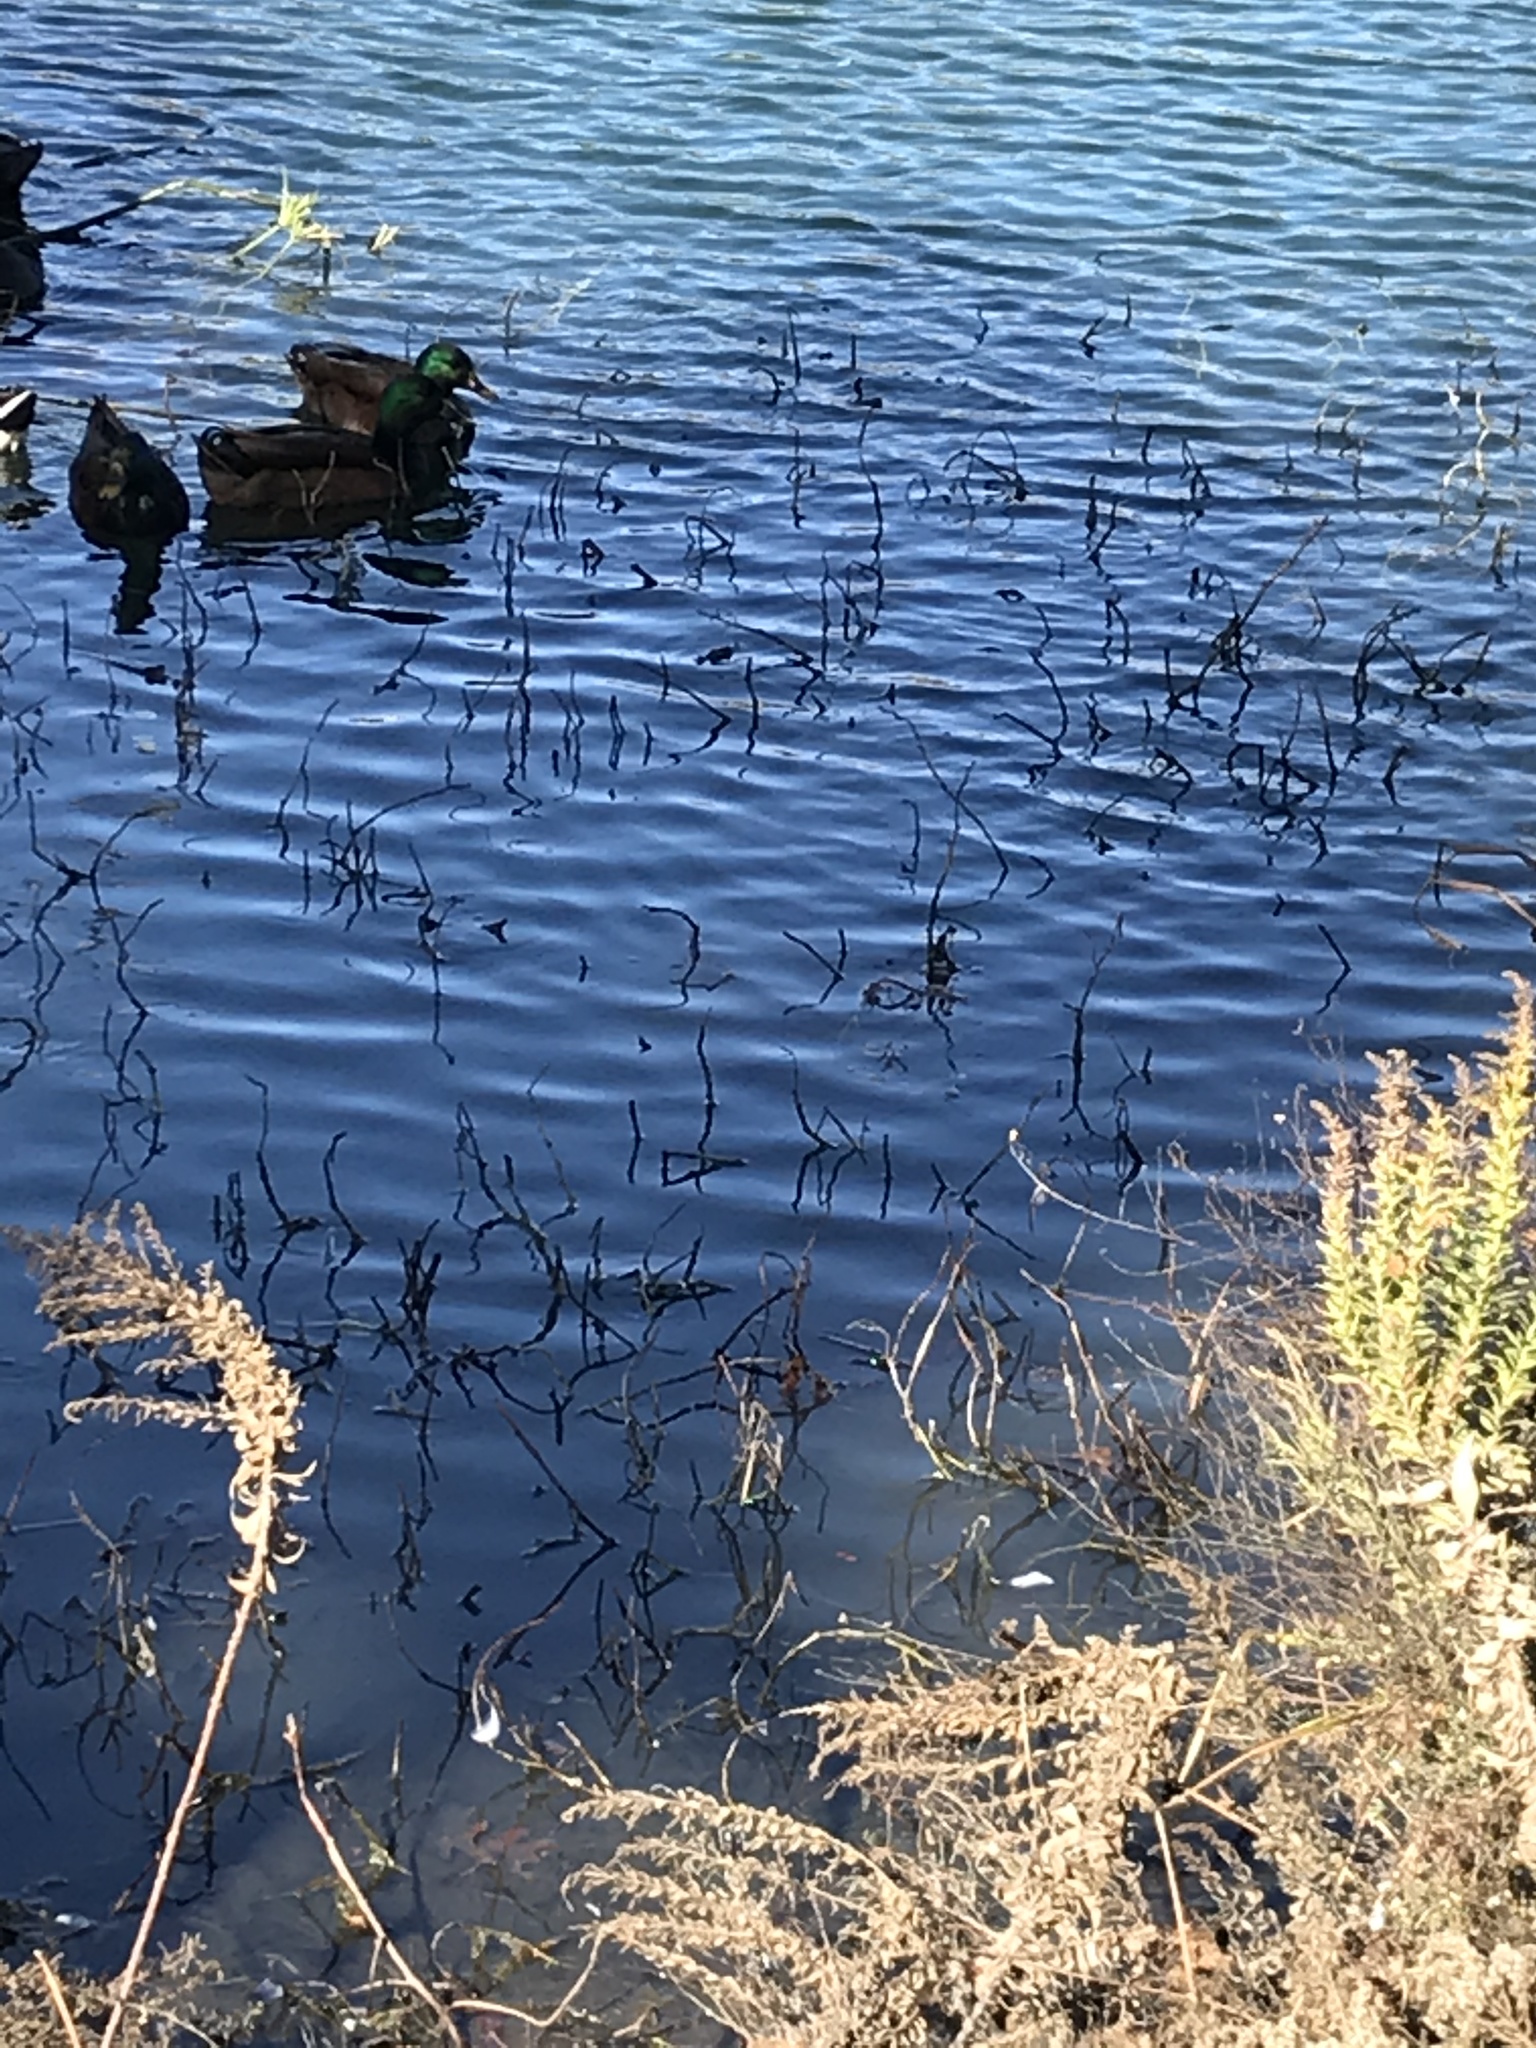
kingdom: Animalia
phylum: Chordata
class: Aves
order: Anseriformes
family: Anatidae
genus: Anas
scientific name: Anas platyrhynchos
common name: Mallard
